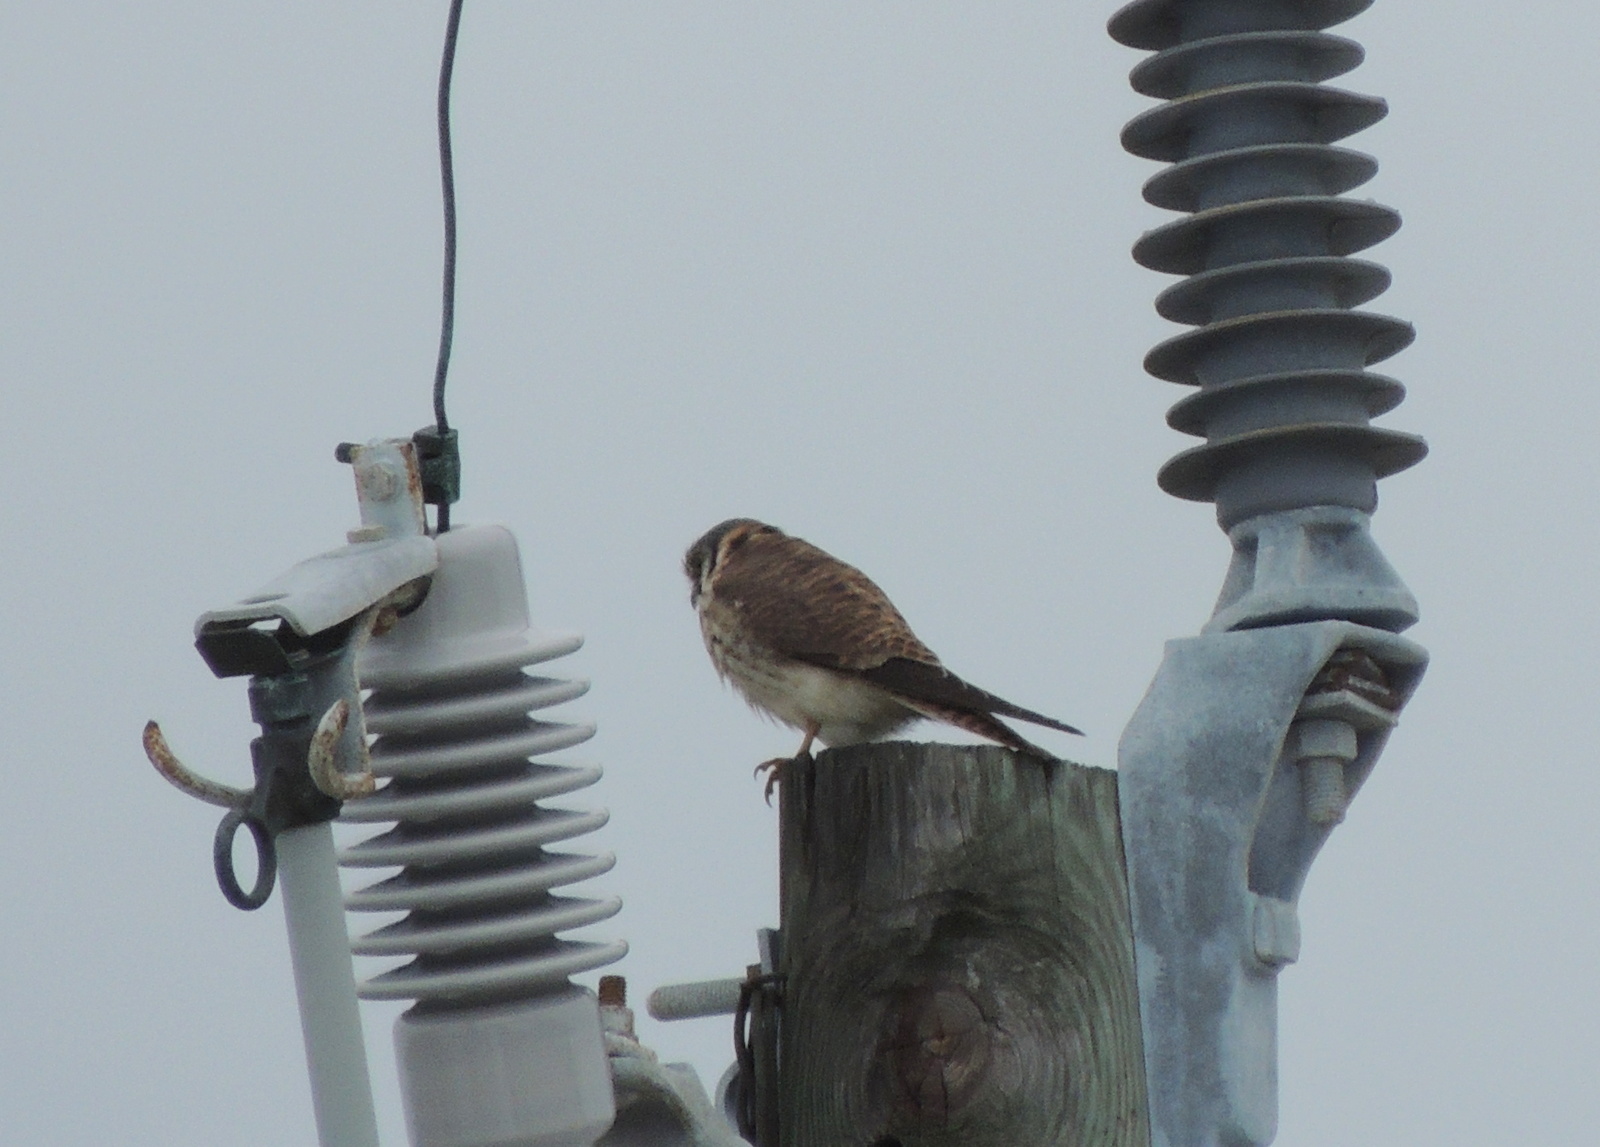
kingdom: Animalia
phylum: Chordata
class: Aves
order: Falconiformes
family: Falconidae
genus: Falco
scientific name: Falco sparverius
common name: American kestrel
